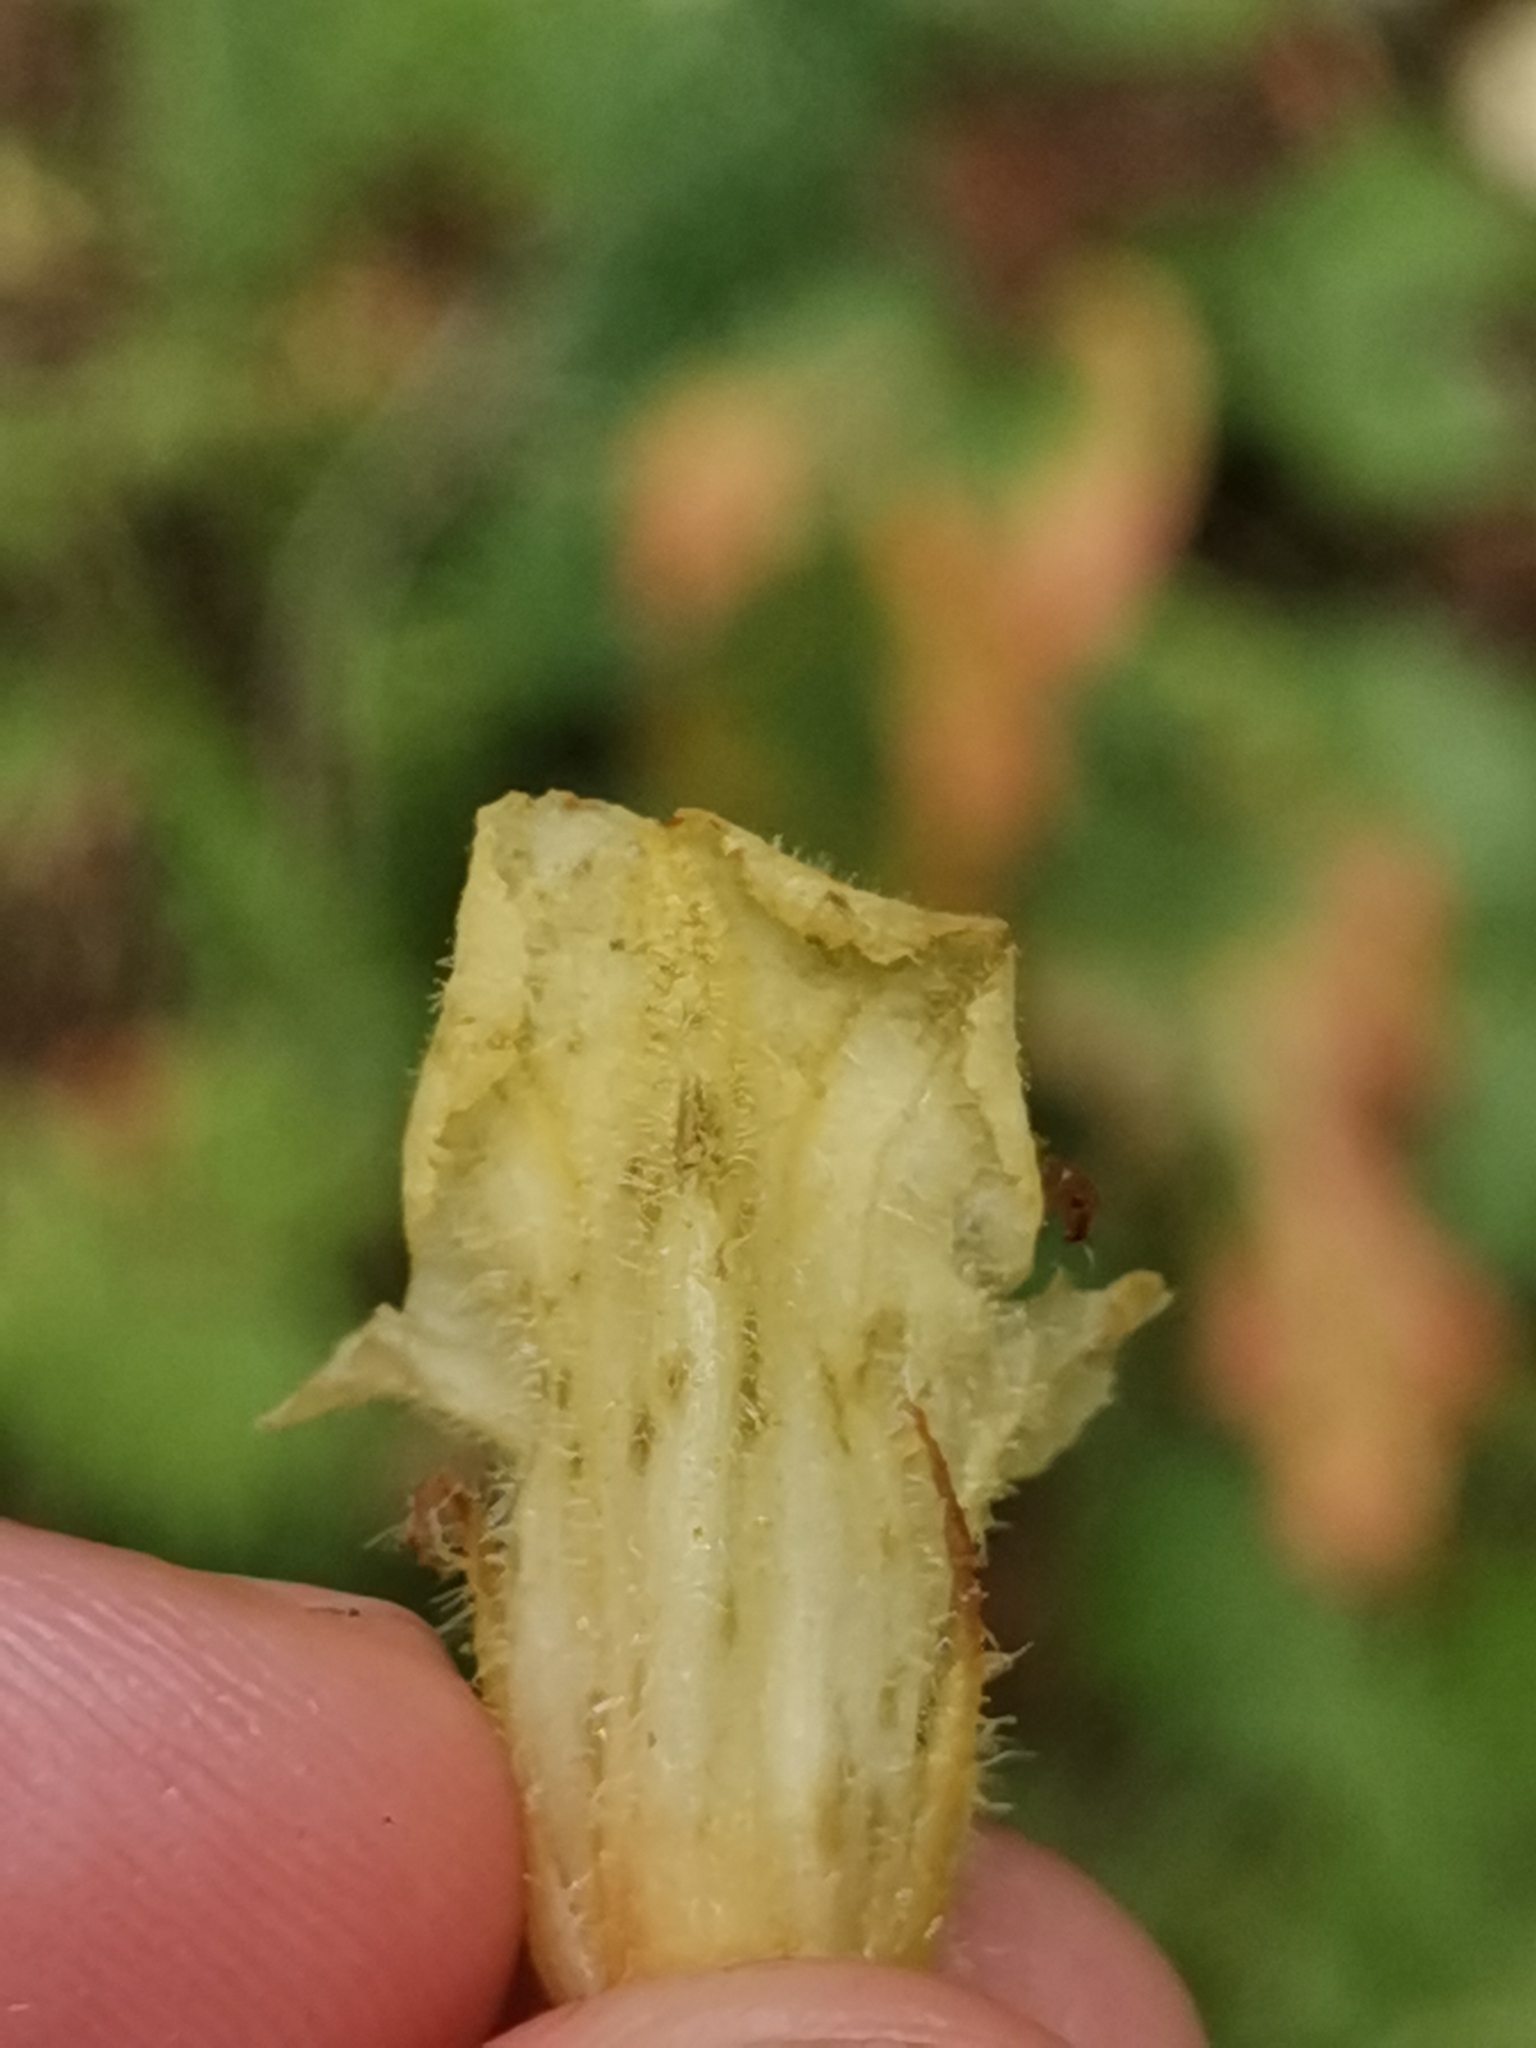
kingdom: Plantae
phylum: Tracheophyta
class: Magnoliopsida
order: Lamiales
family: Orobanchaceae
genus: Orobanche
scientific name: Orobanche lycoctoni
